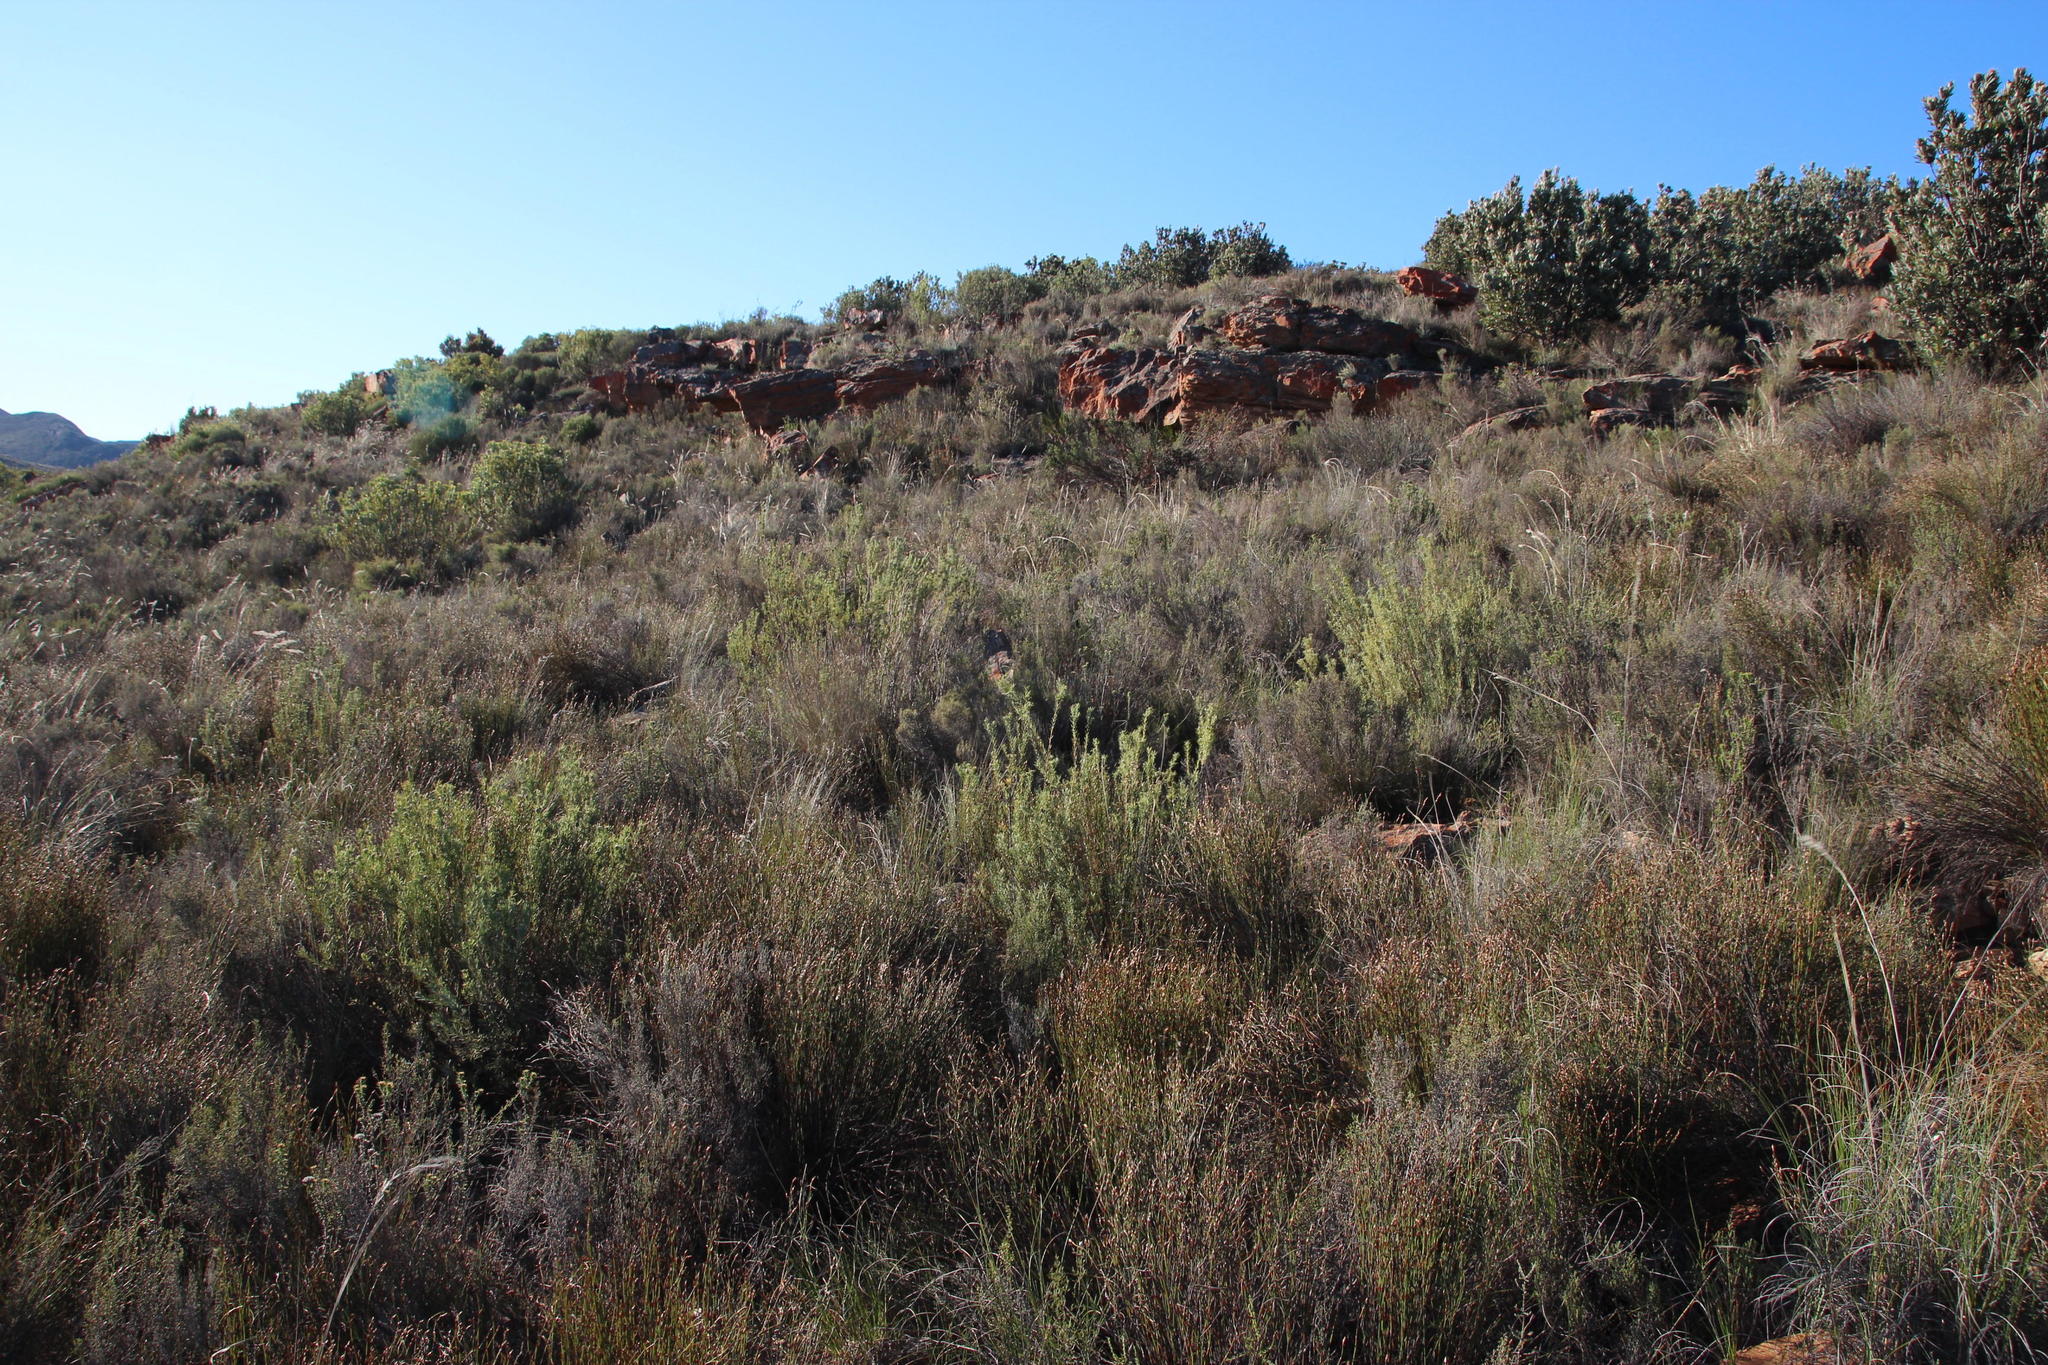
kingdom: Plantae
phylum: Tracheophyta
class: Magnoliopsida
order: Proteales
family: Proteaceae
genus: Leucadendron
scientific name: Leucadendron brunioides
